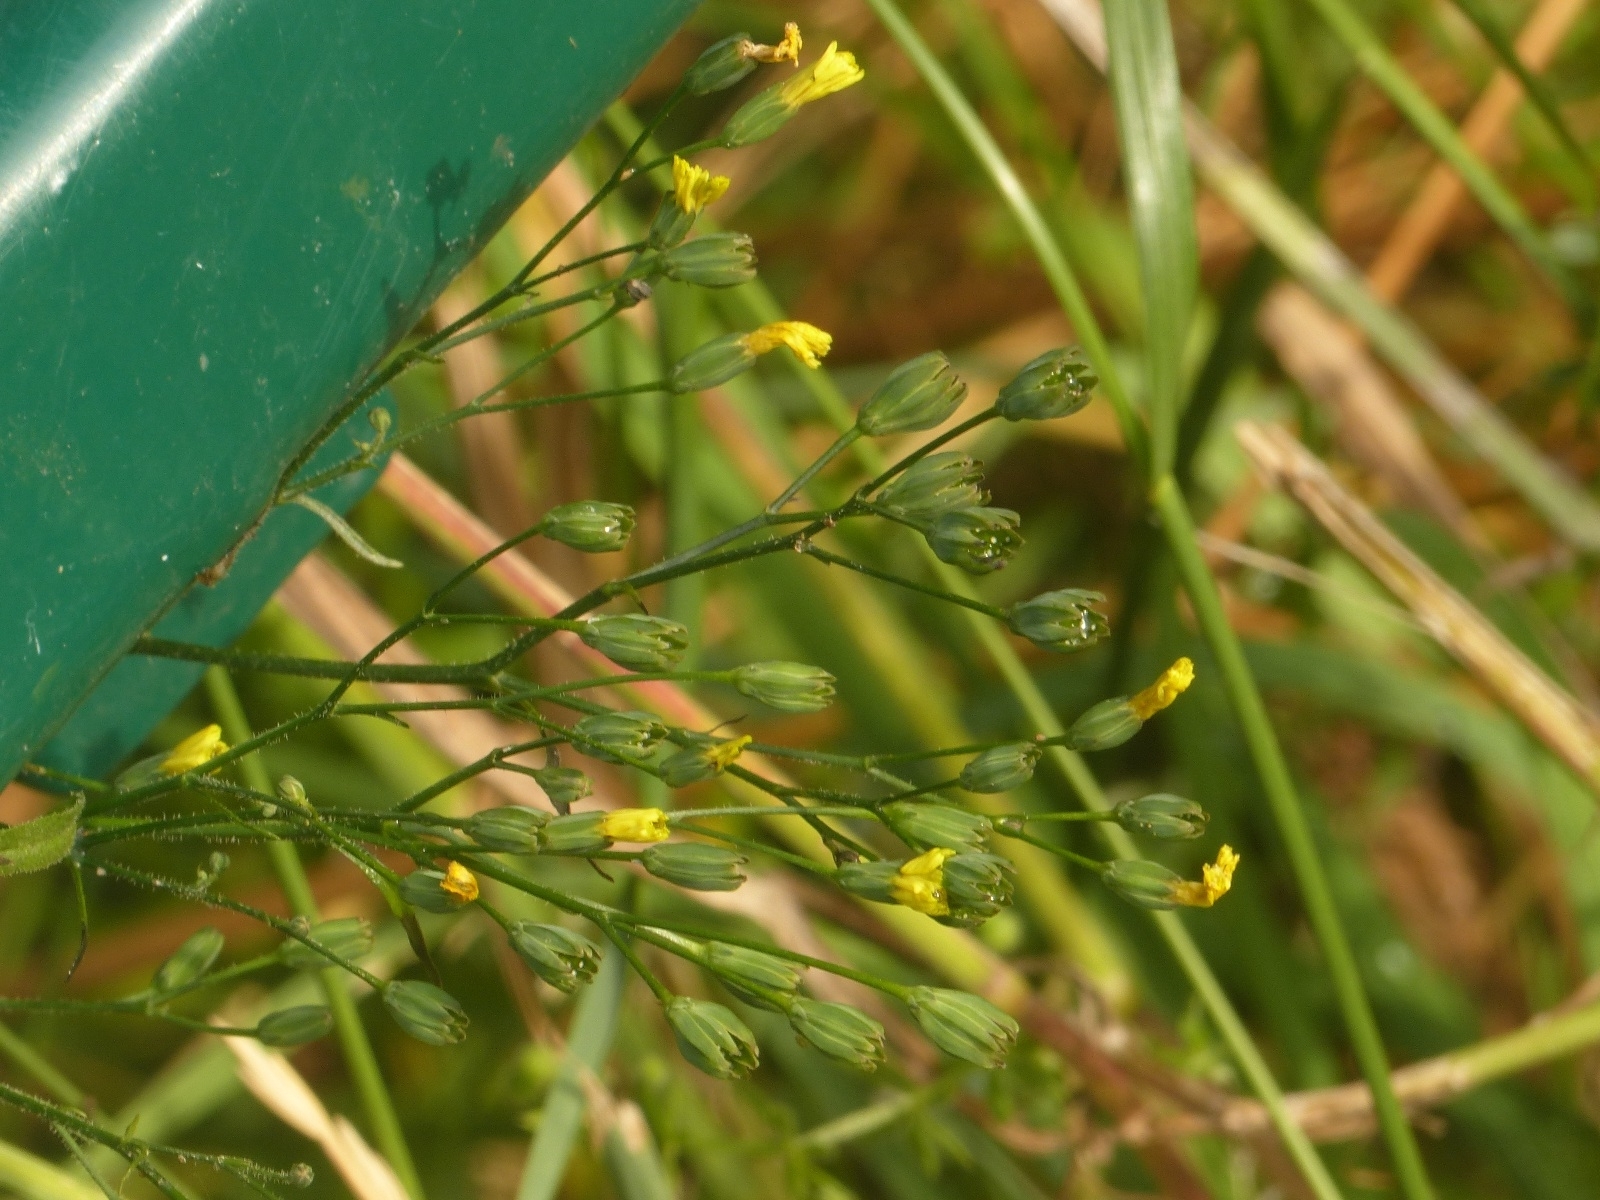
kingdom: Plantae
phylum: Tracheophyta
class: Magnoliopsida
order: Asterales
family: Asteraceae
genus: Lapsana
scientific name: Lapsana communis
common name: Nipplewort
